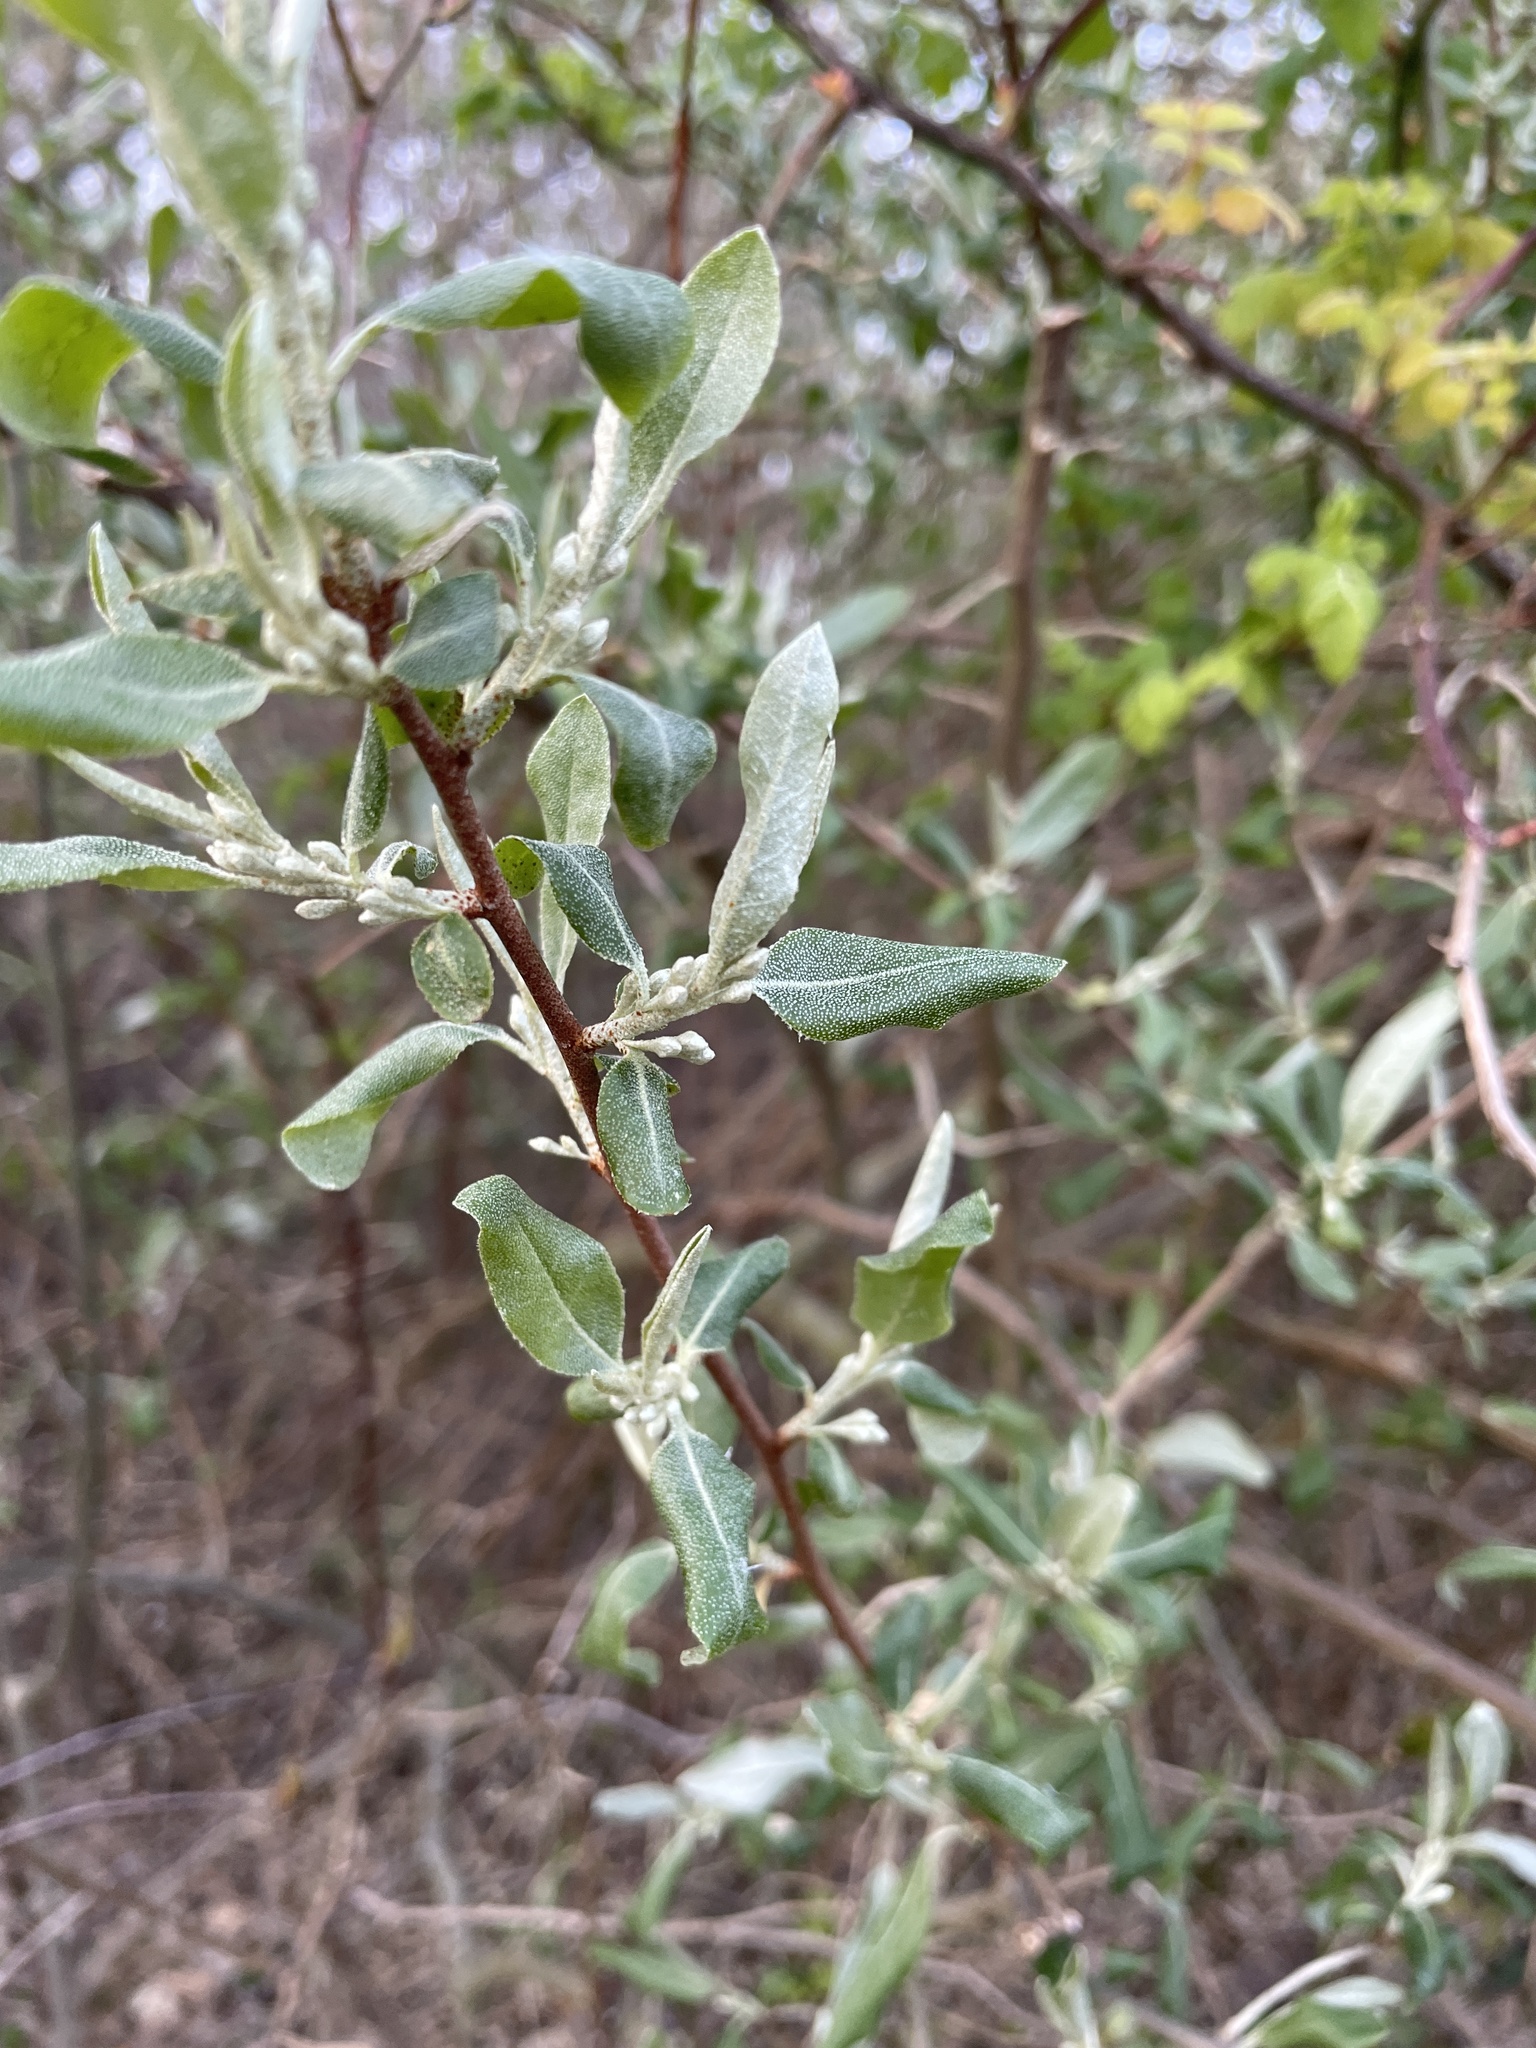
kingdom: Plantae
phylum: Tracheophyta
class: Magnoliopsida
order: Rosales
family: Elaeagnaceae
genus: Elaeagnus
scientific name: Elaeagnus umbellata
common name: Autumn olive
